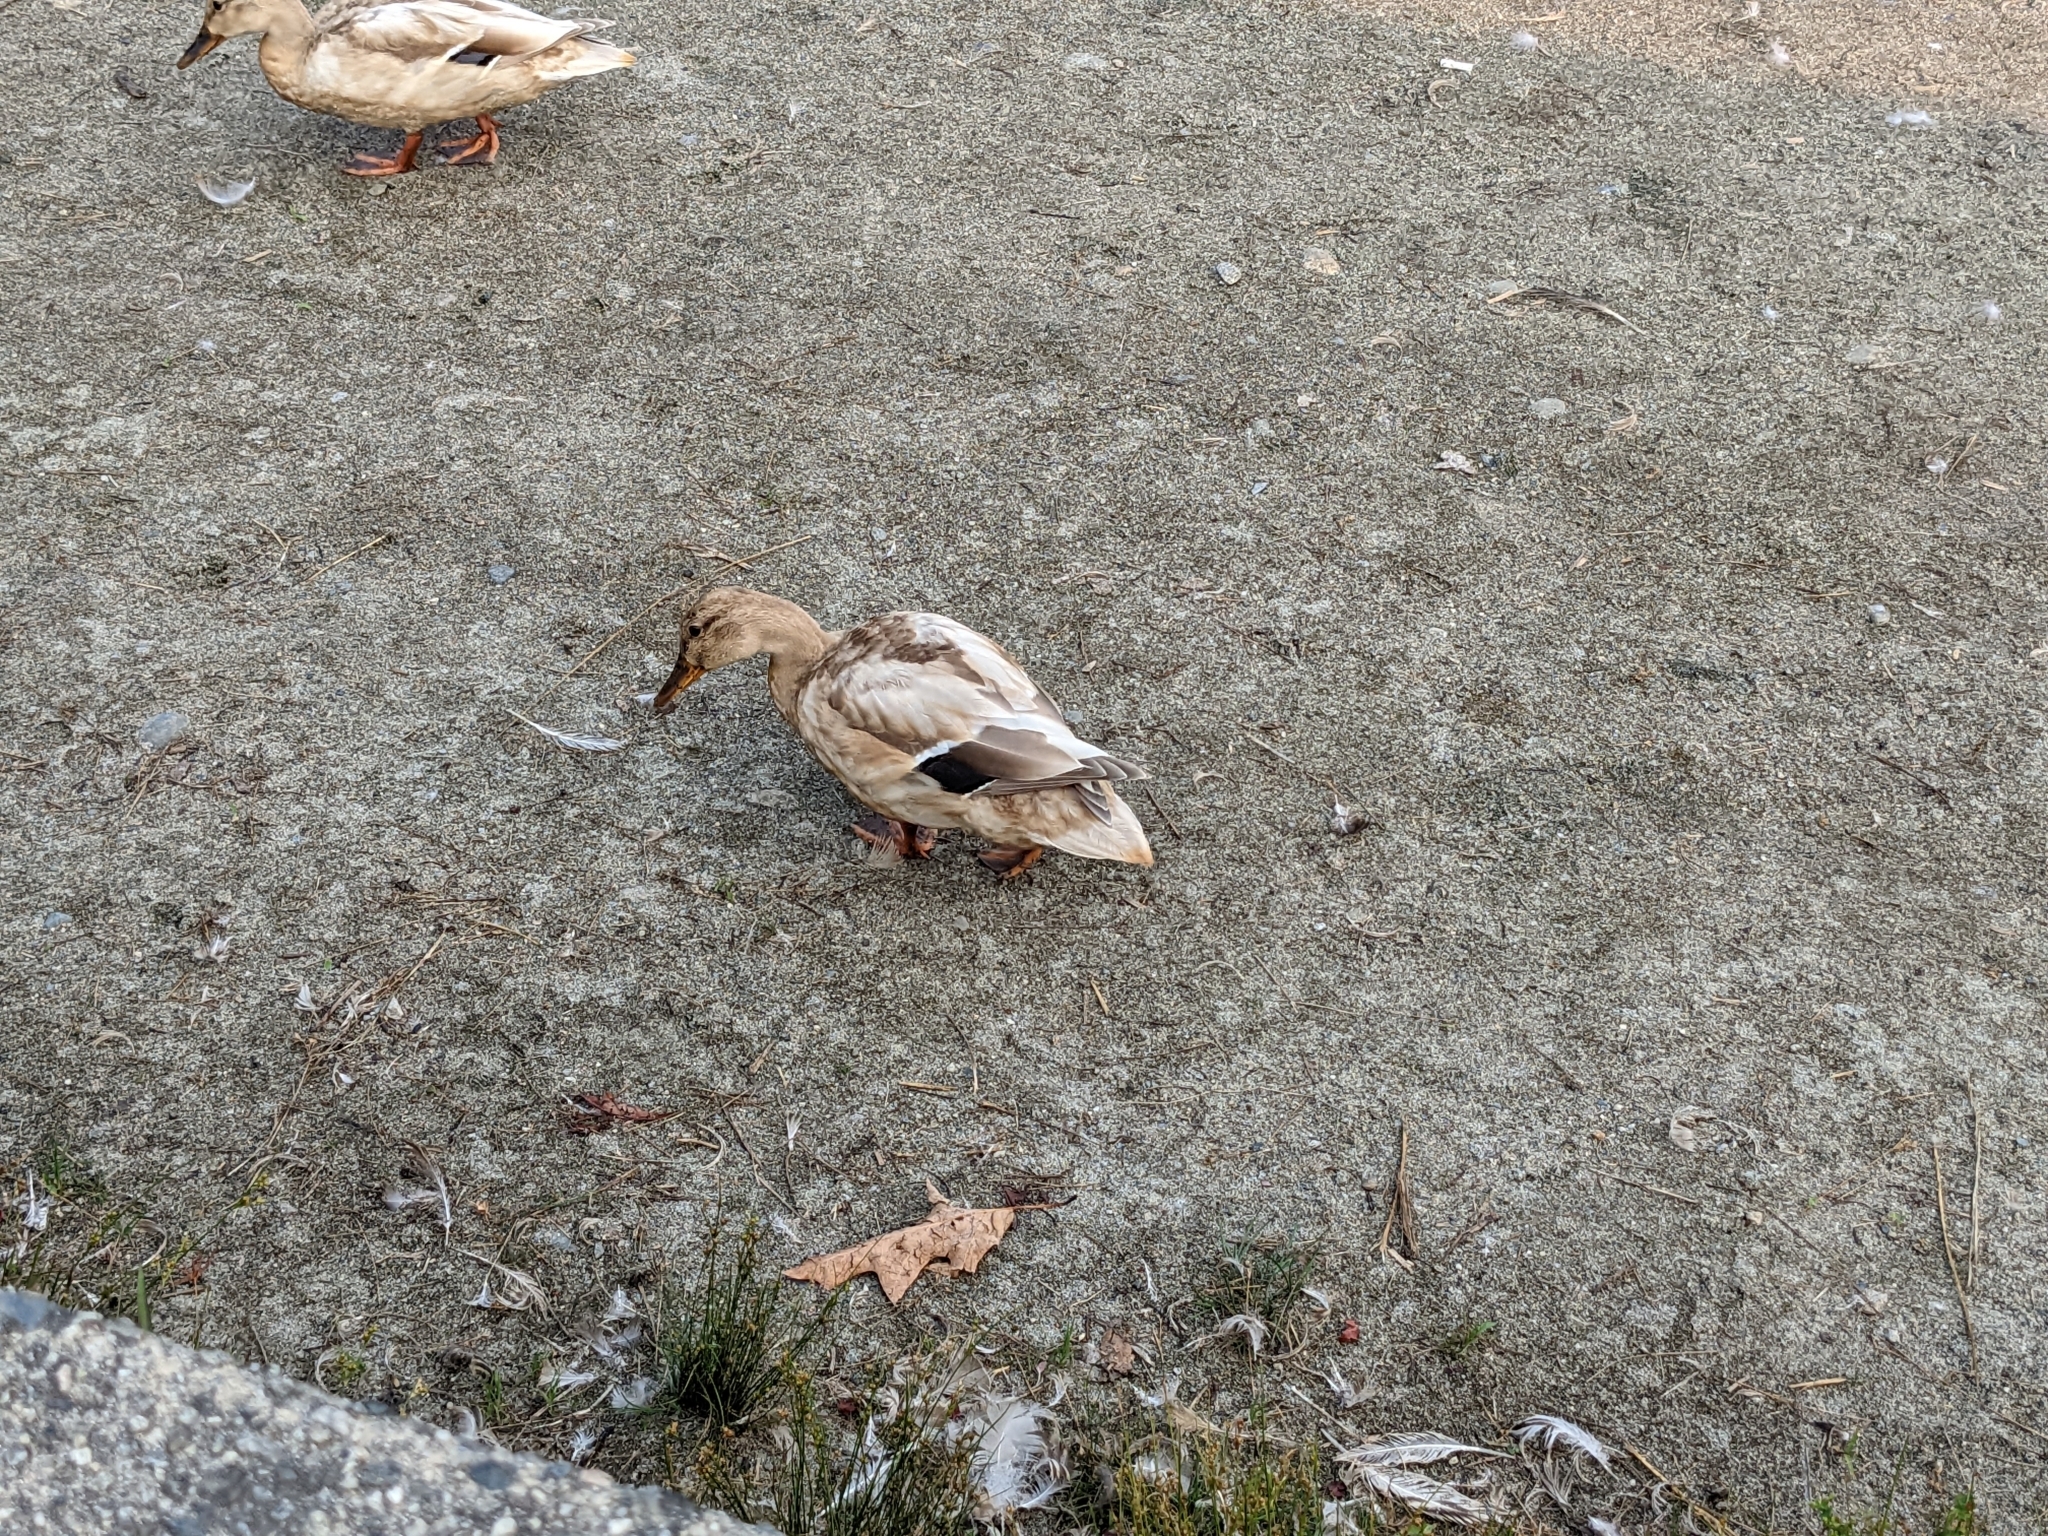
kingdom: Animalia
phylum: Chordata
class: Aves
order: Anseriformes
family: Anatidae
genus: Anas
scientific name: Anas platyrhynchos
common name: Mallard
